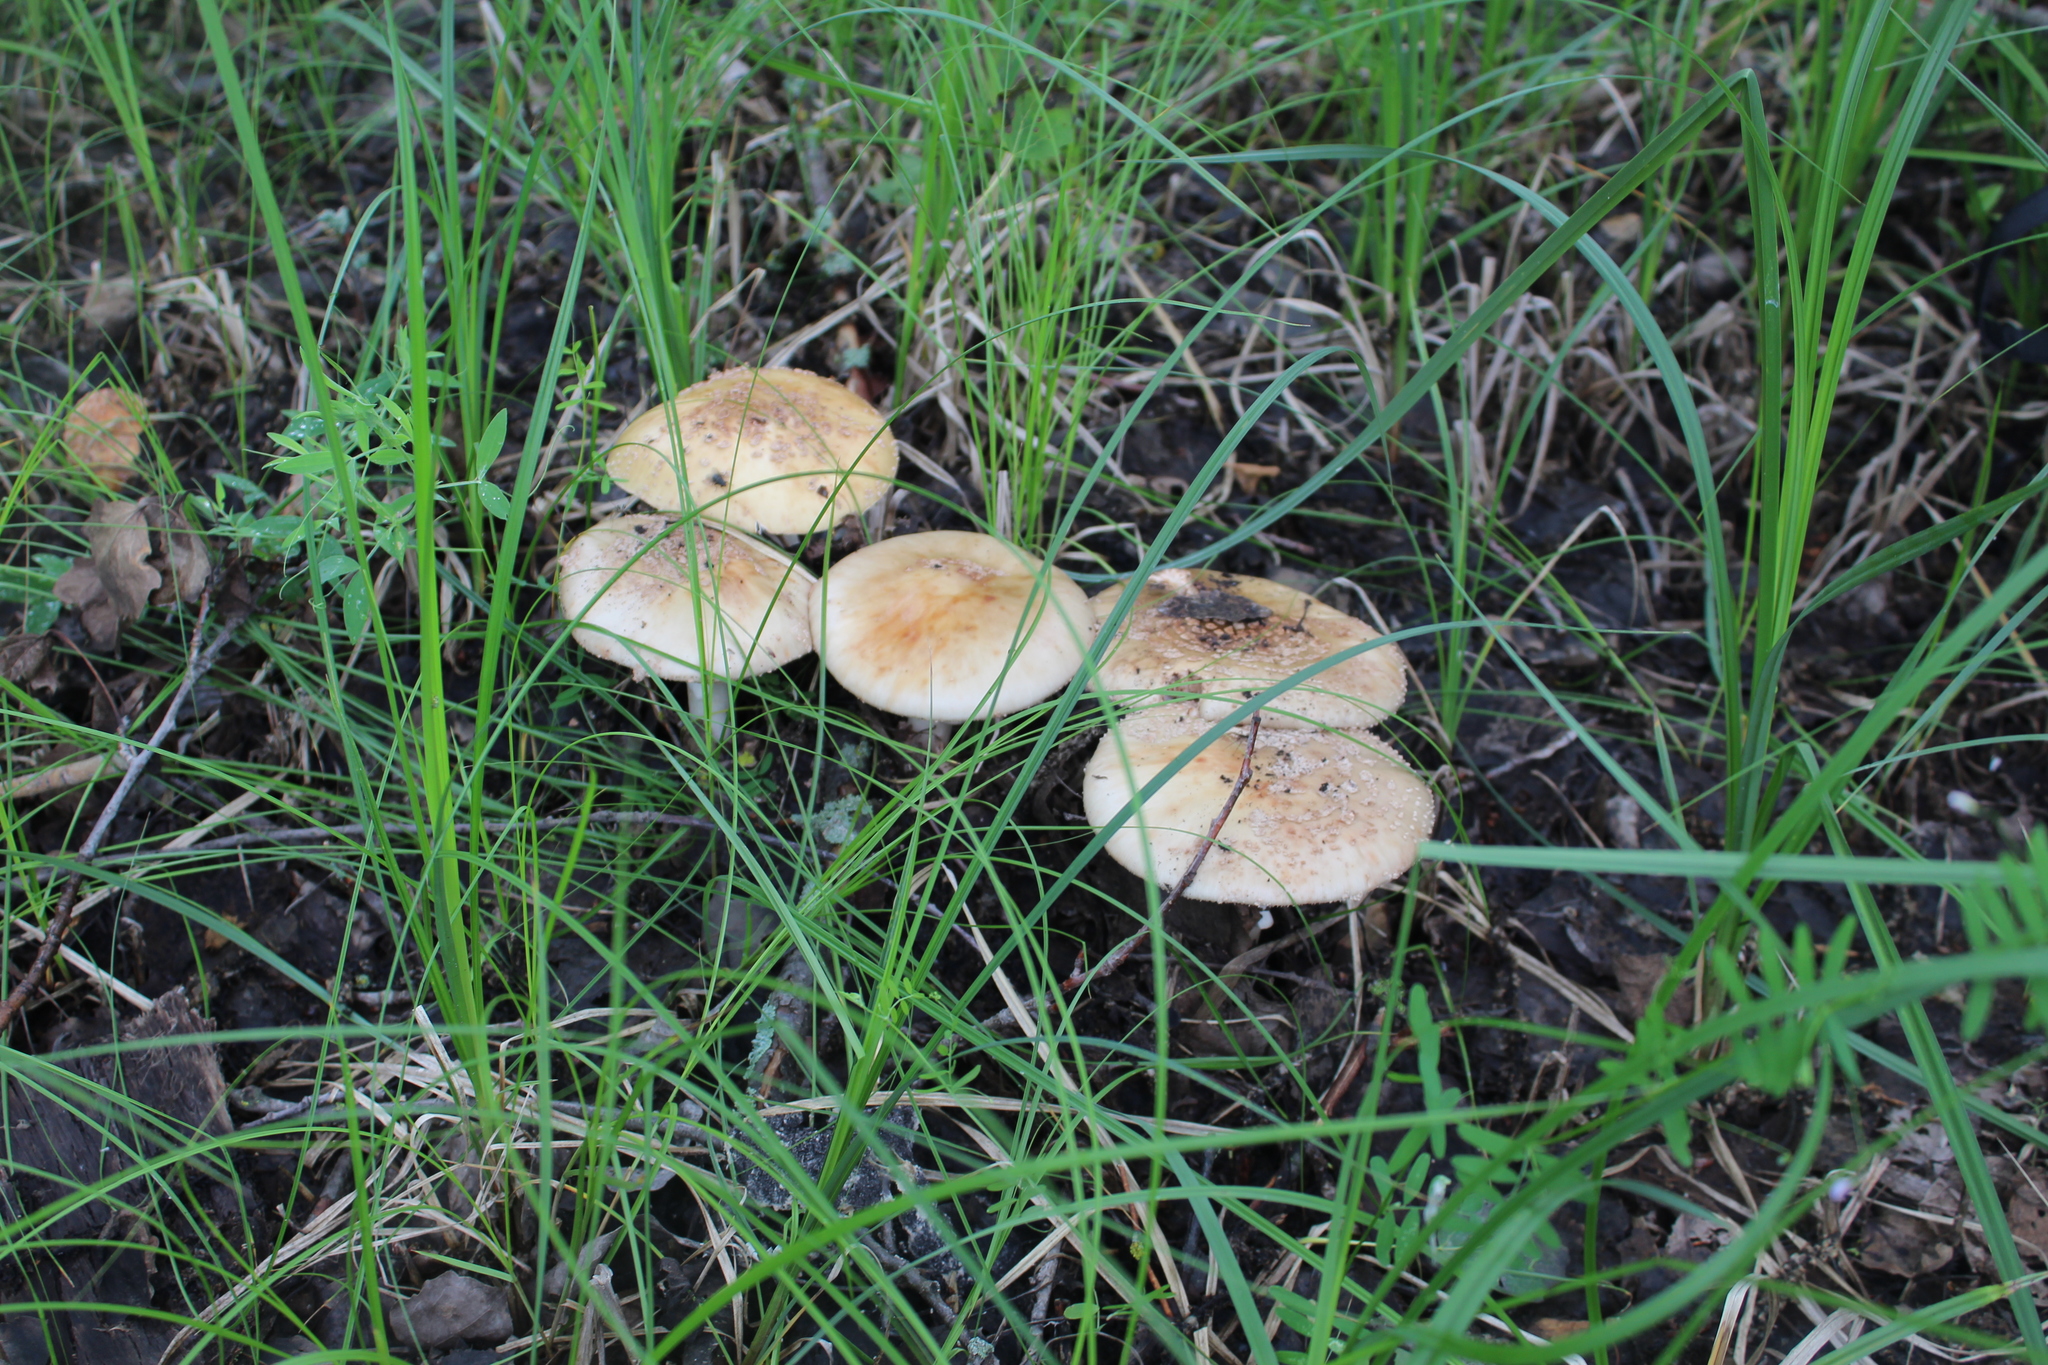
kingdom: Fungi
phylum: Basidiomycota
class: Agaricomycetes
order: Agaricales
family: Amanitaceae
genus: Amanita
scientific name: Amanita rubescens
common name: Blusher
